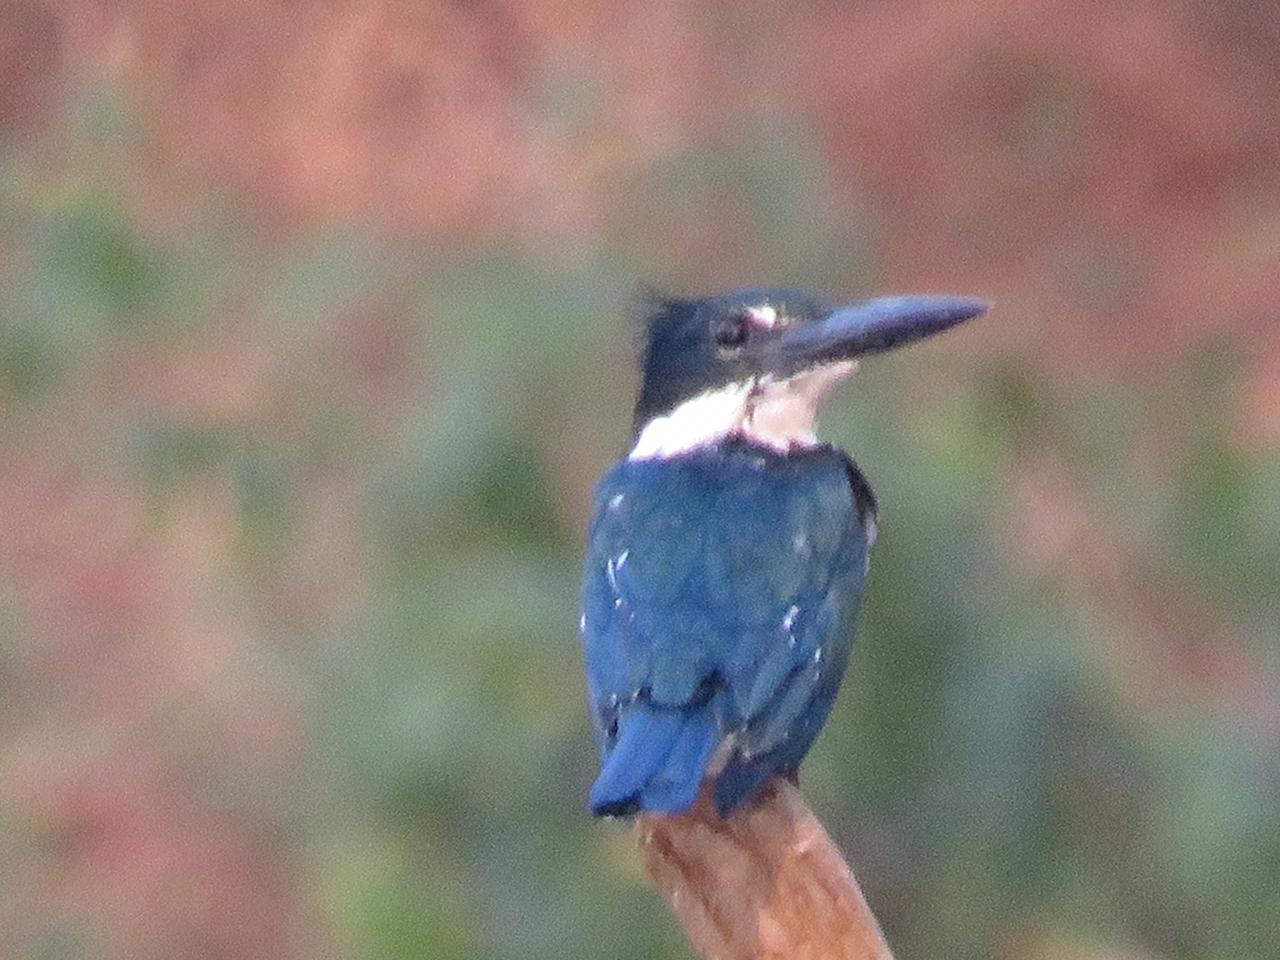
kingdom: Animalia
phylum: Chordata
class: Aves
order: Coraciiformes
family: Alcedinidae
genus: Chloroceryle
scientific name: Chloroceryle amazona
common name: Amazon kingfisher
